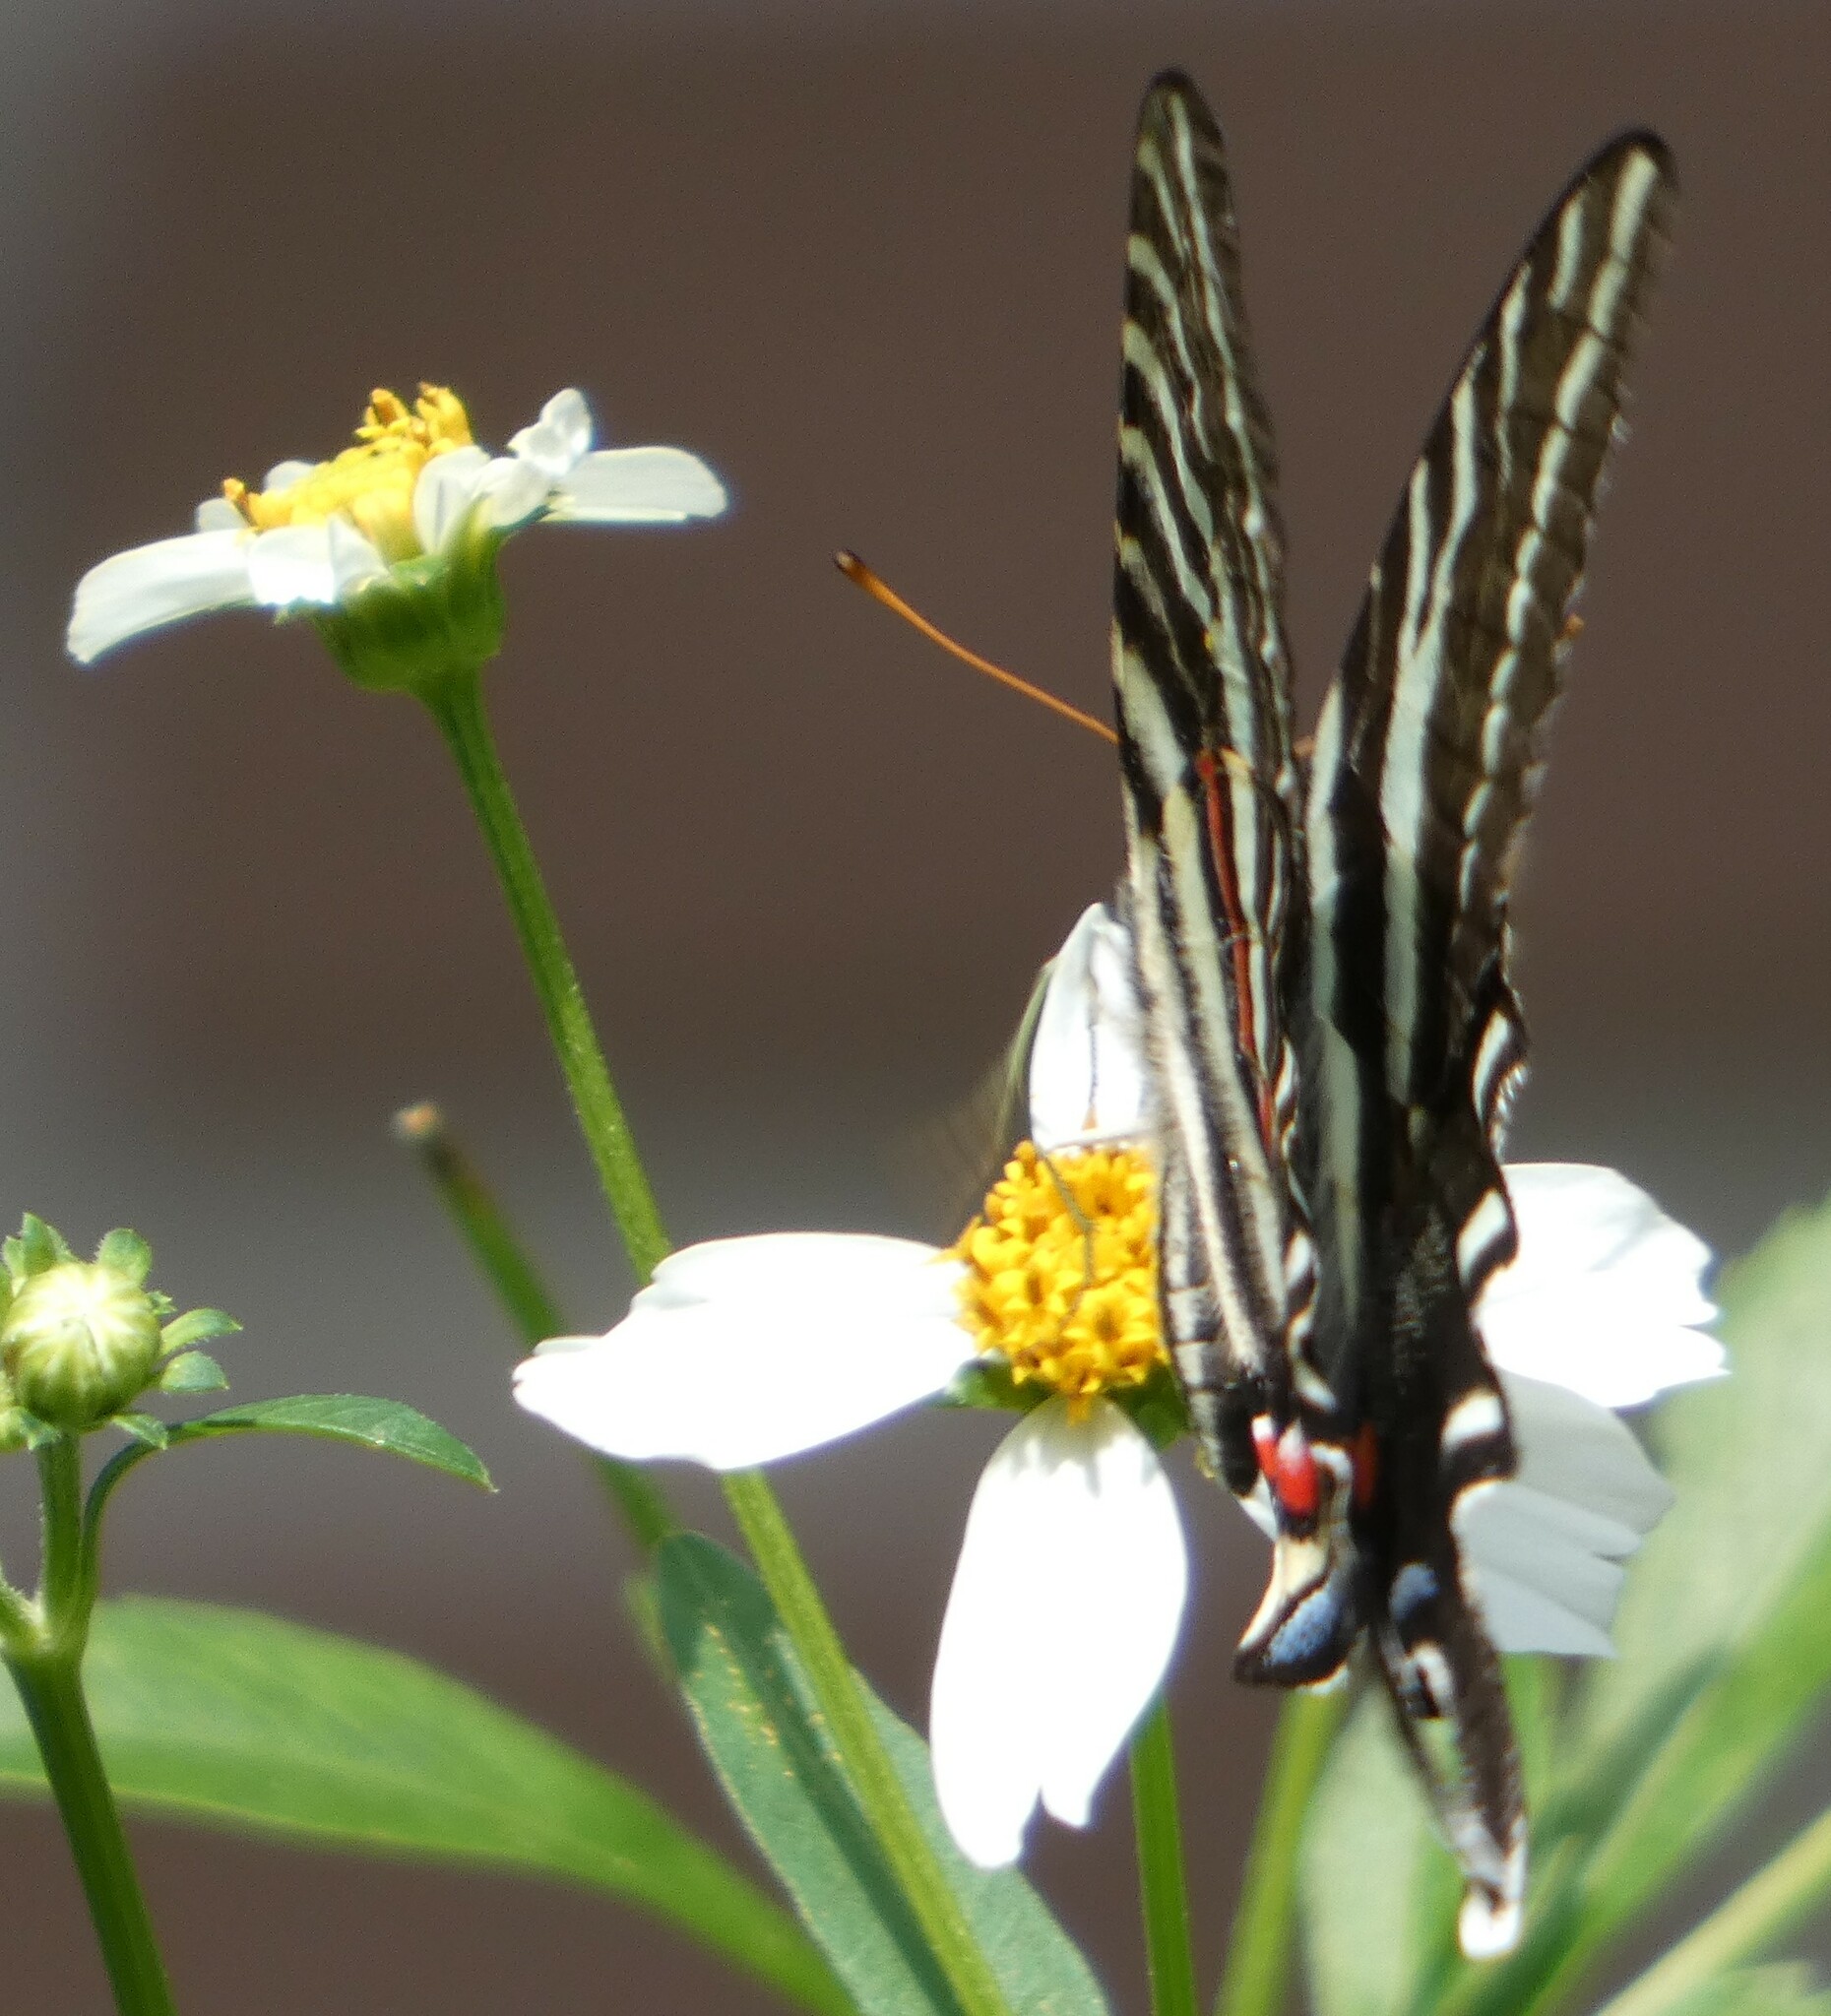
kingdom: Animalia
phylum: Arthropoda
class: Insecta
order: Lepidoptera
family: Papilionidae
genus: Protographium
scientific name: Protographium marcellus
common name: Zebra swallowtail
